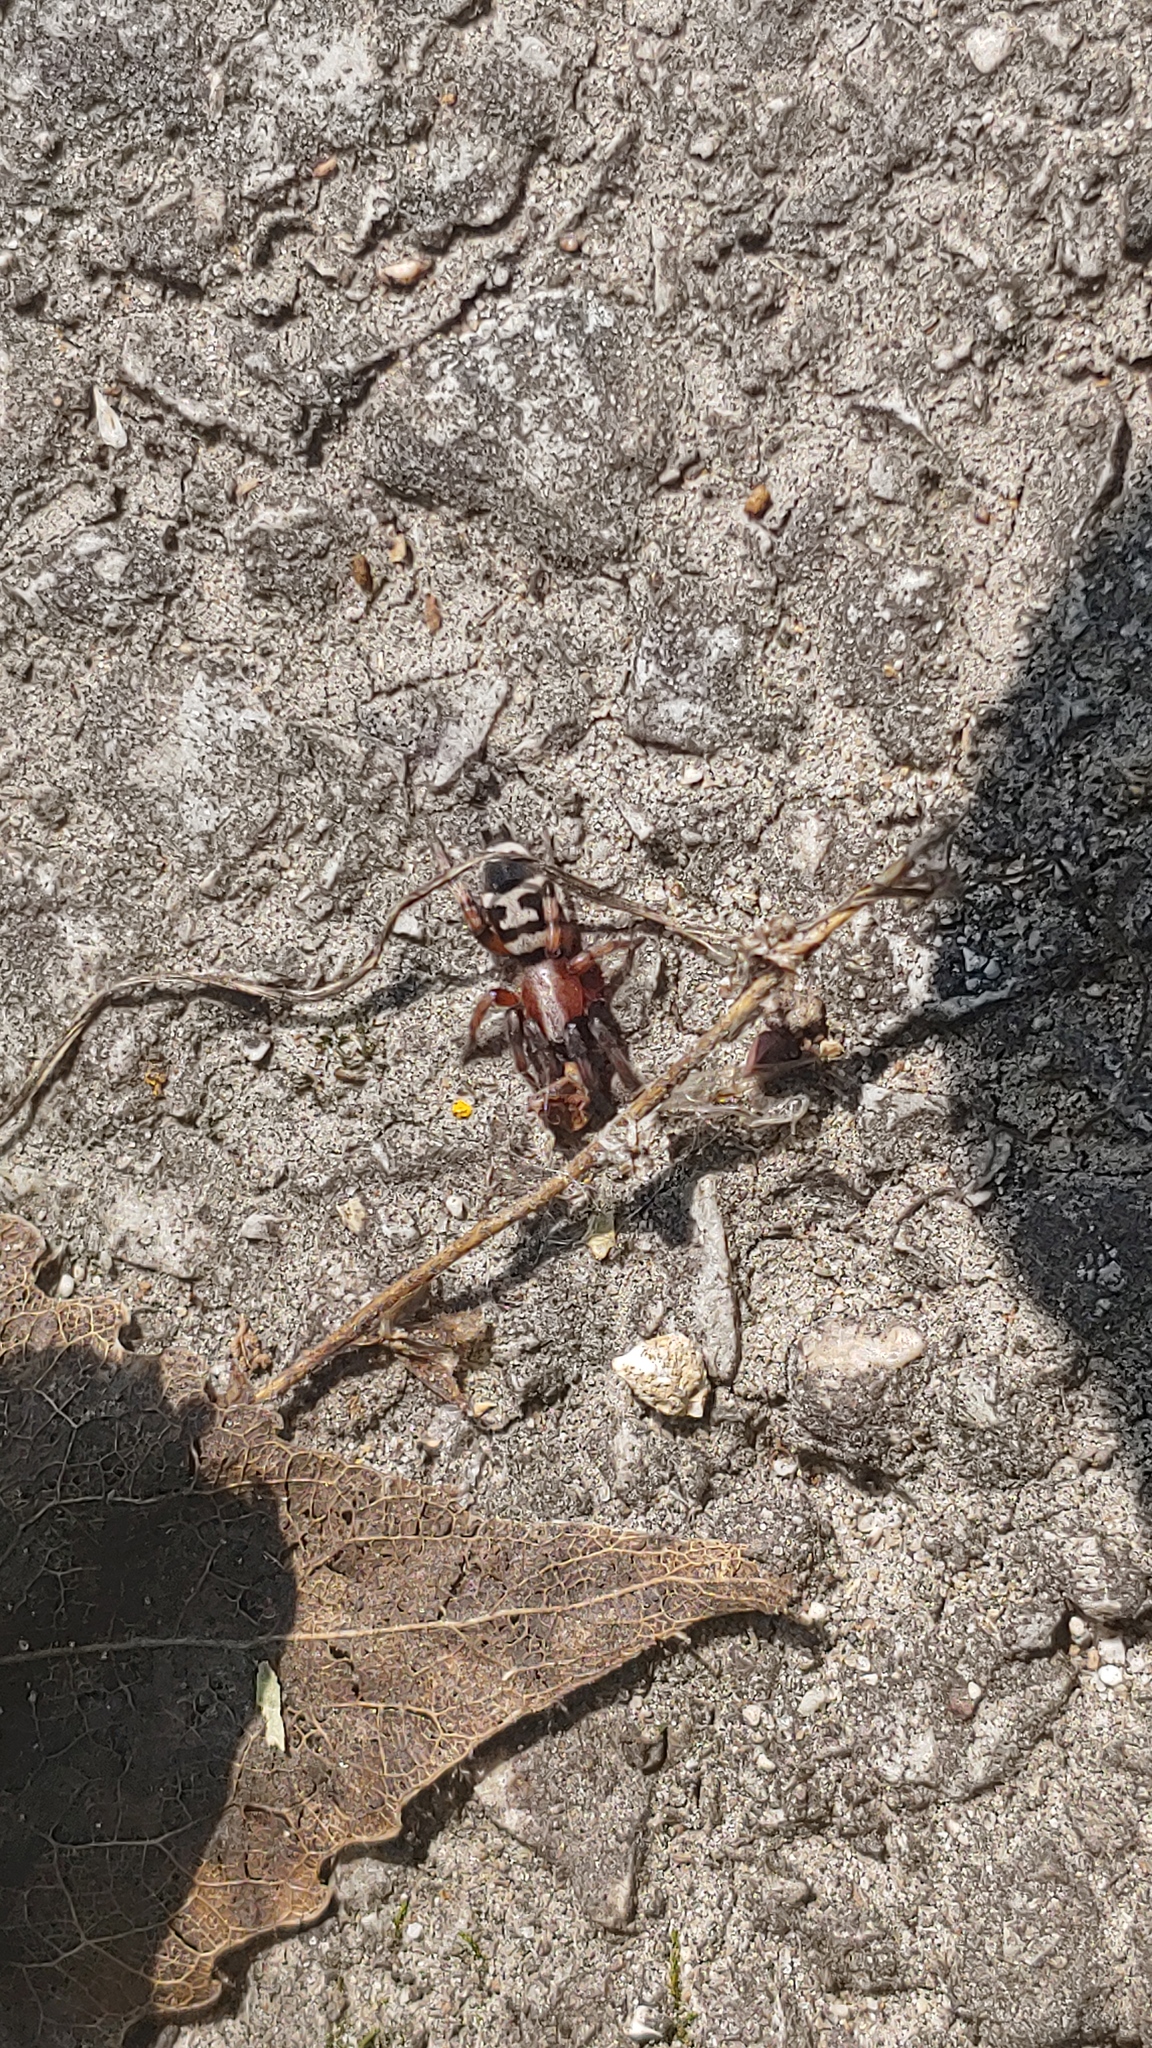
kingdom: Animalia
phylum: Arthropoda
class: Arachnida
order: Araneae
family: Gnaphosidae
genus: Sergiolus
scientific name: Sergiolus capulatus
